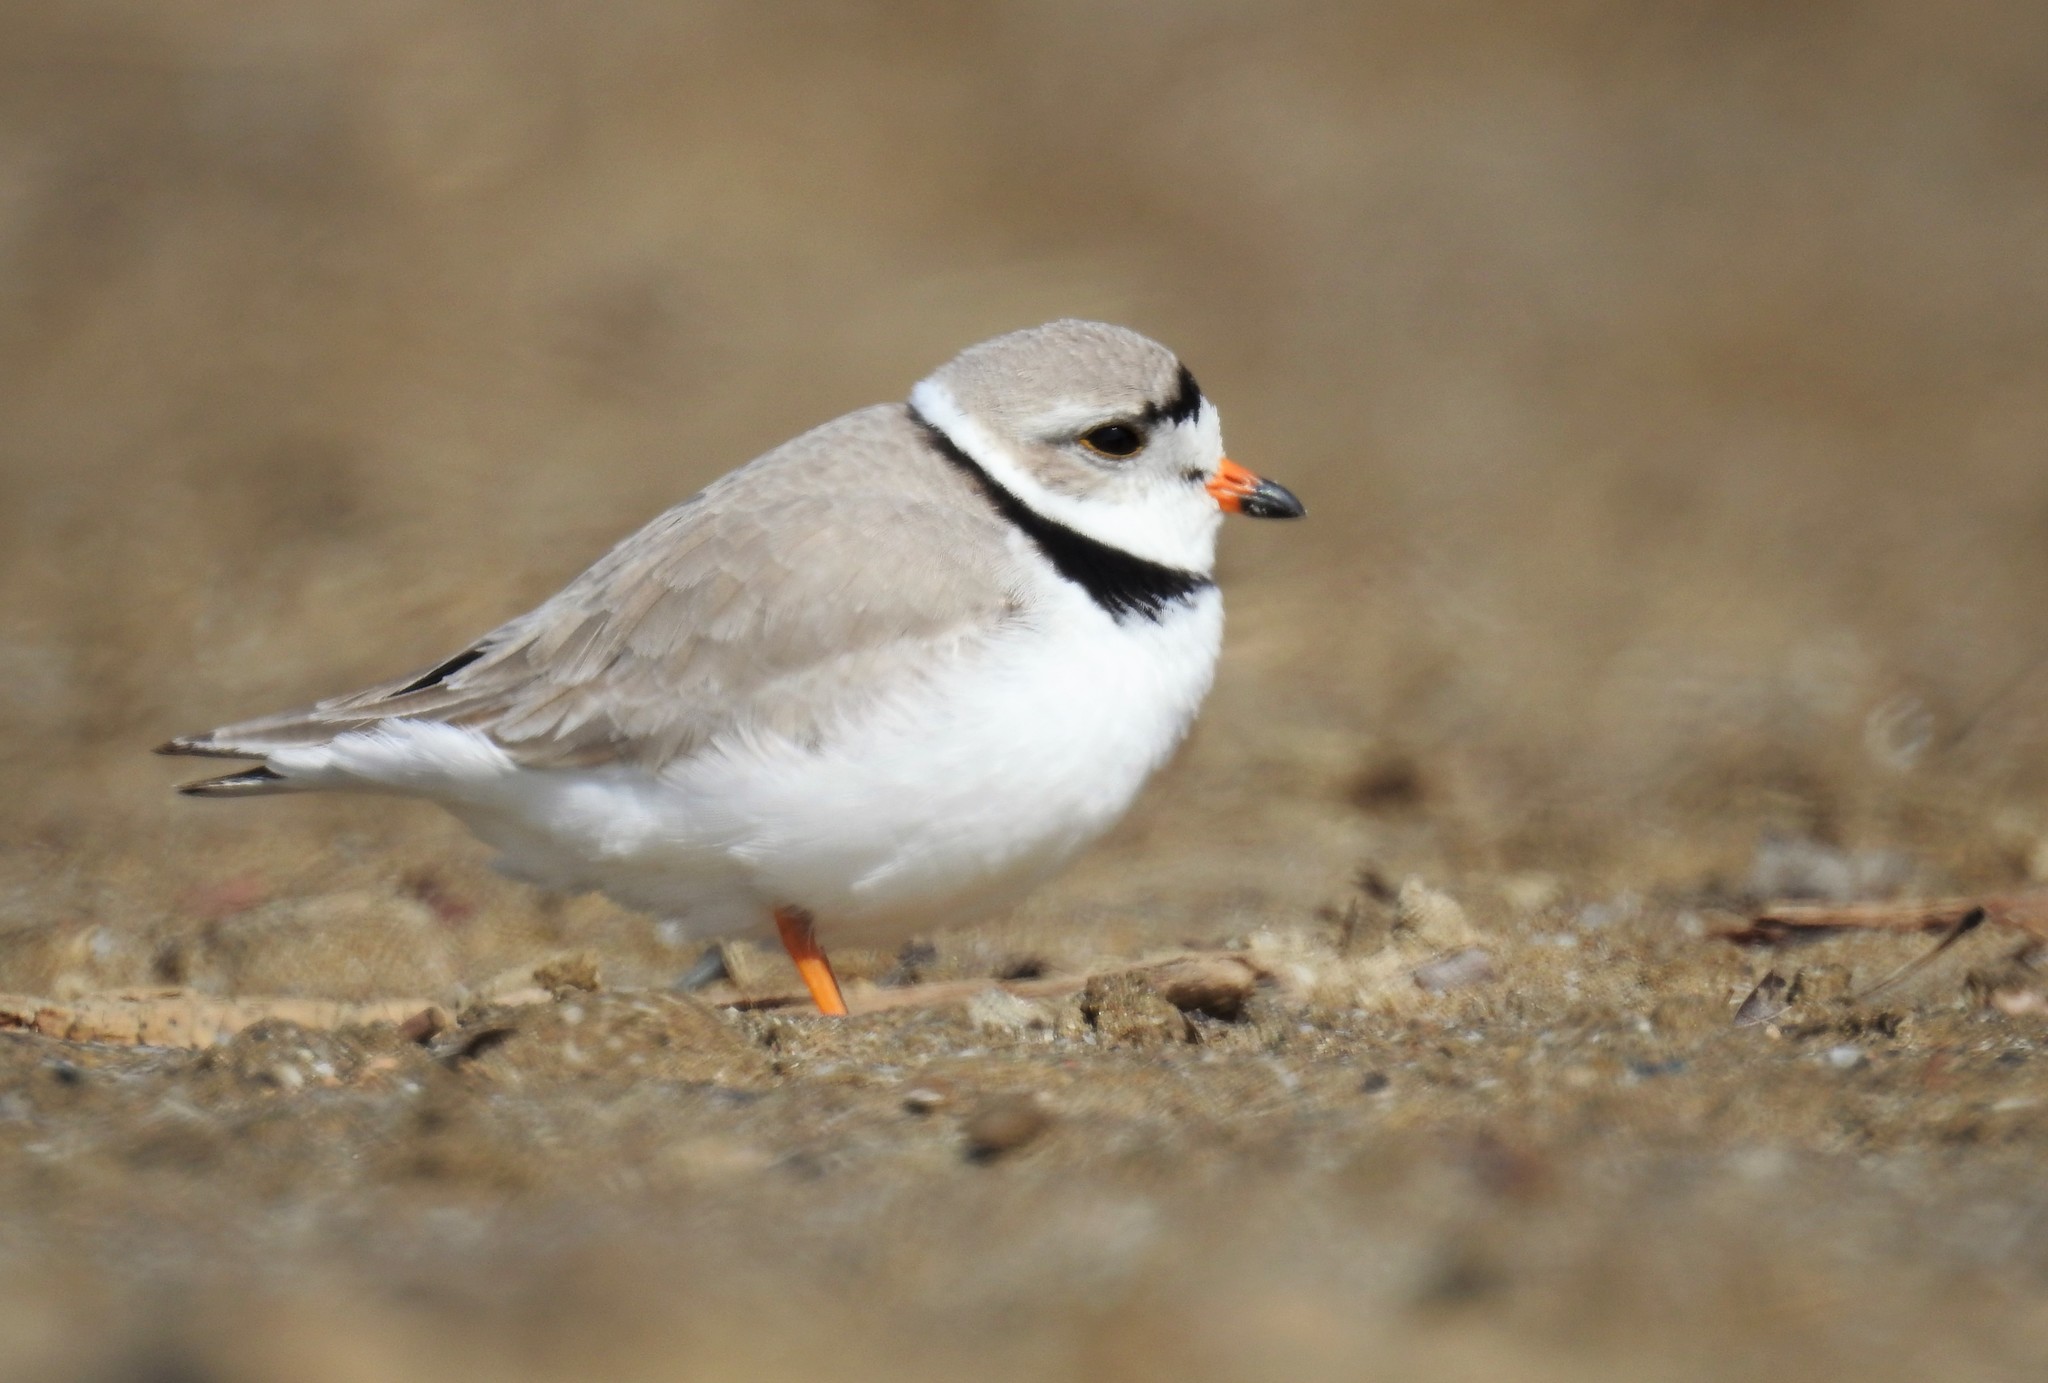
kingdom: Animalia
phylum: Chordata
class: Aves
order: Charadriiformes
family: Charadriidae
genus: Charadrius
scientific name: Charadrius melodus
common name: Piping plover
